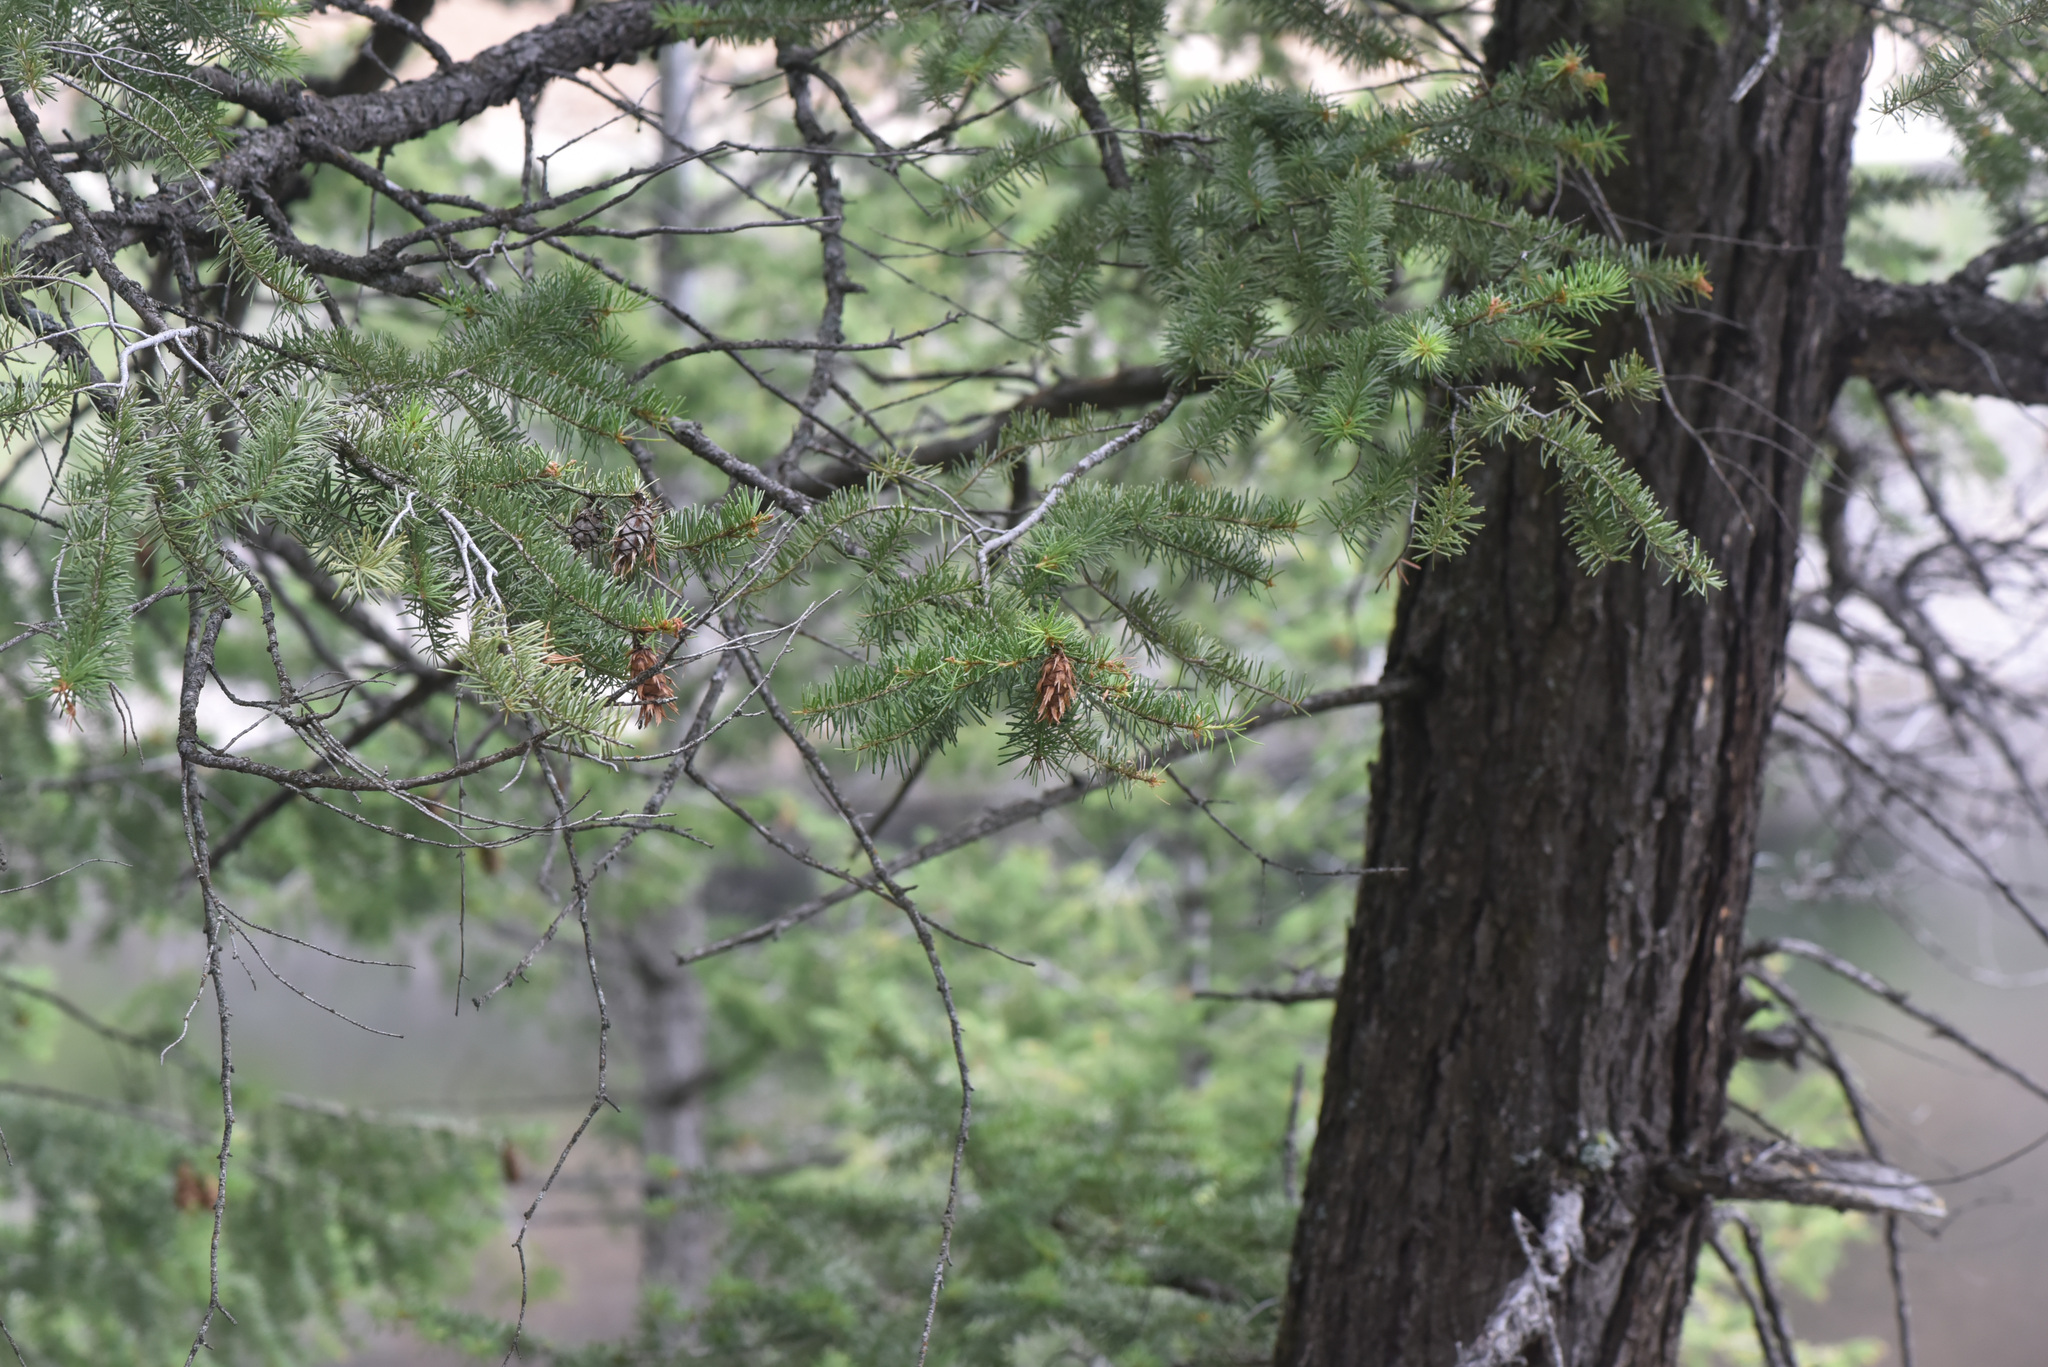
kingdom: Plantae
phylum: Tracheophyta
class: Pinopsida
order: Pinales
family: Pinaceae
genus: Pseudotsuga
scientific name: Pseudotsuga menziesii
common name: Douglas fir
